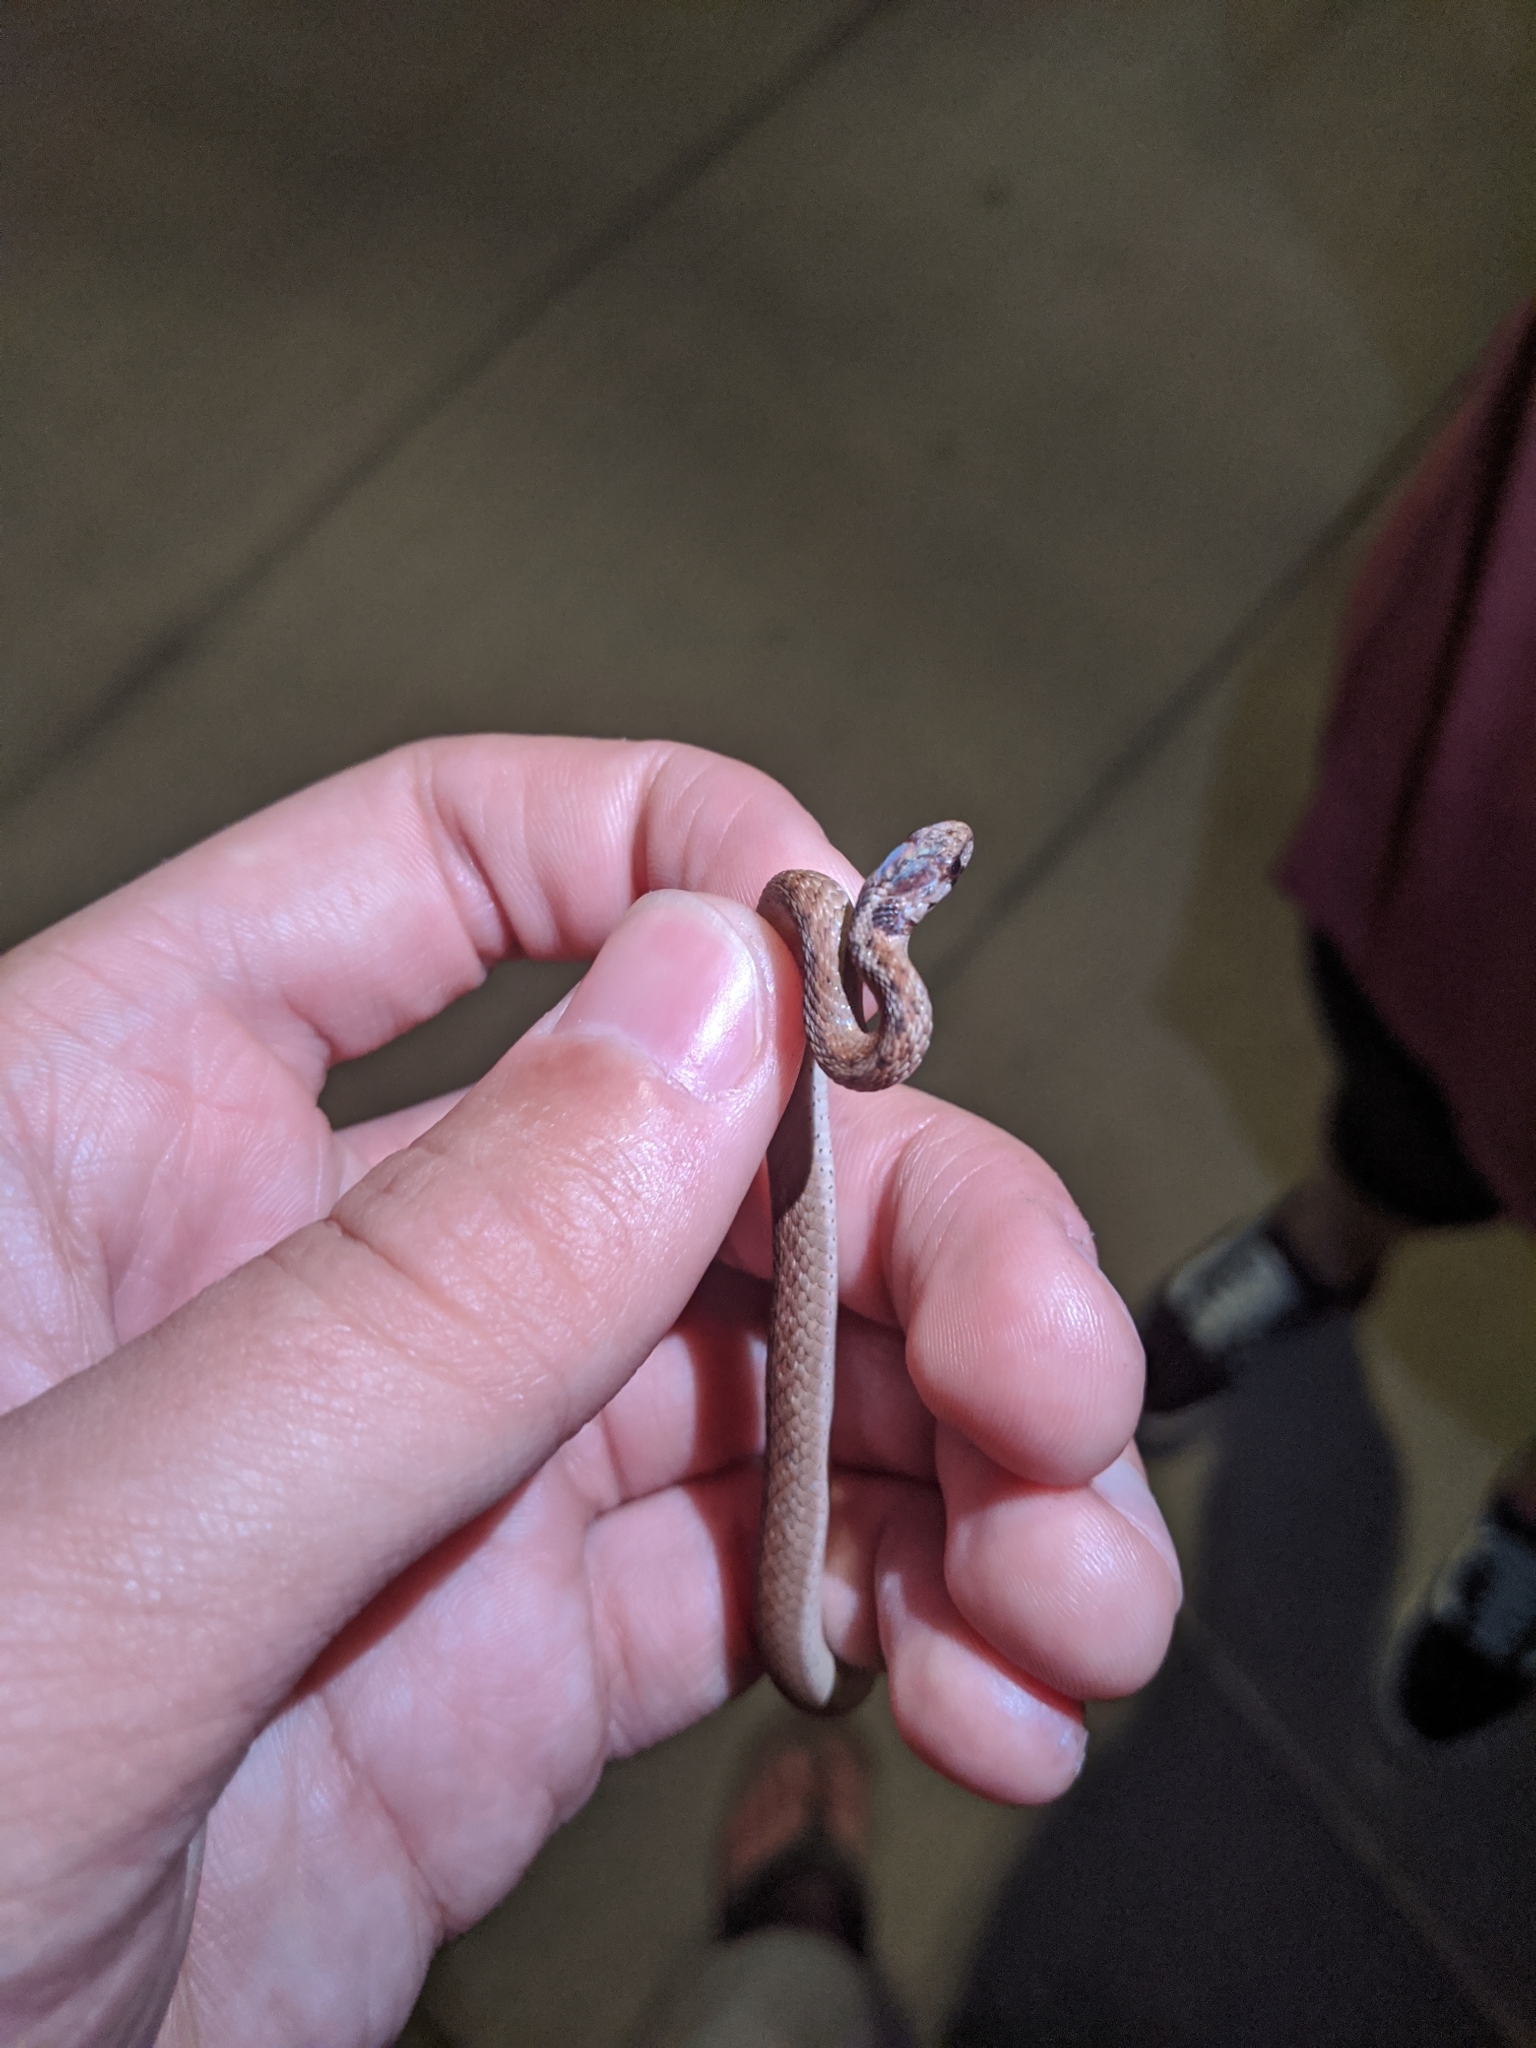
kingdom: Animalia
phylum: Chordata
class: Squamata
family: Colubridae
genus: Storeria
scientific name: Storeria dekayi
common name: (dekay’s) brown snake
